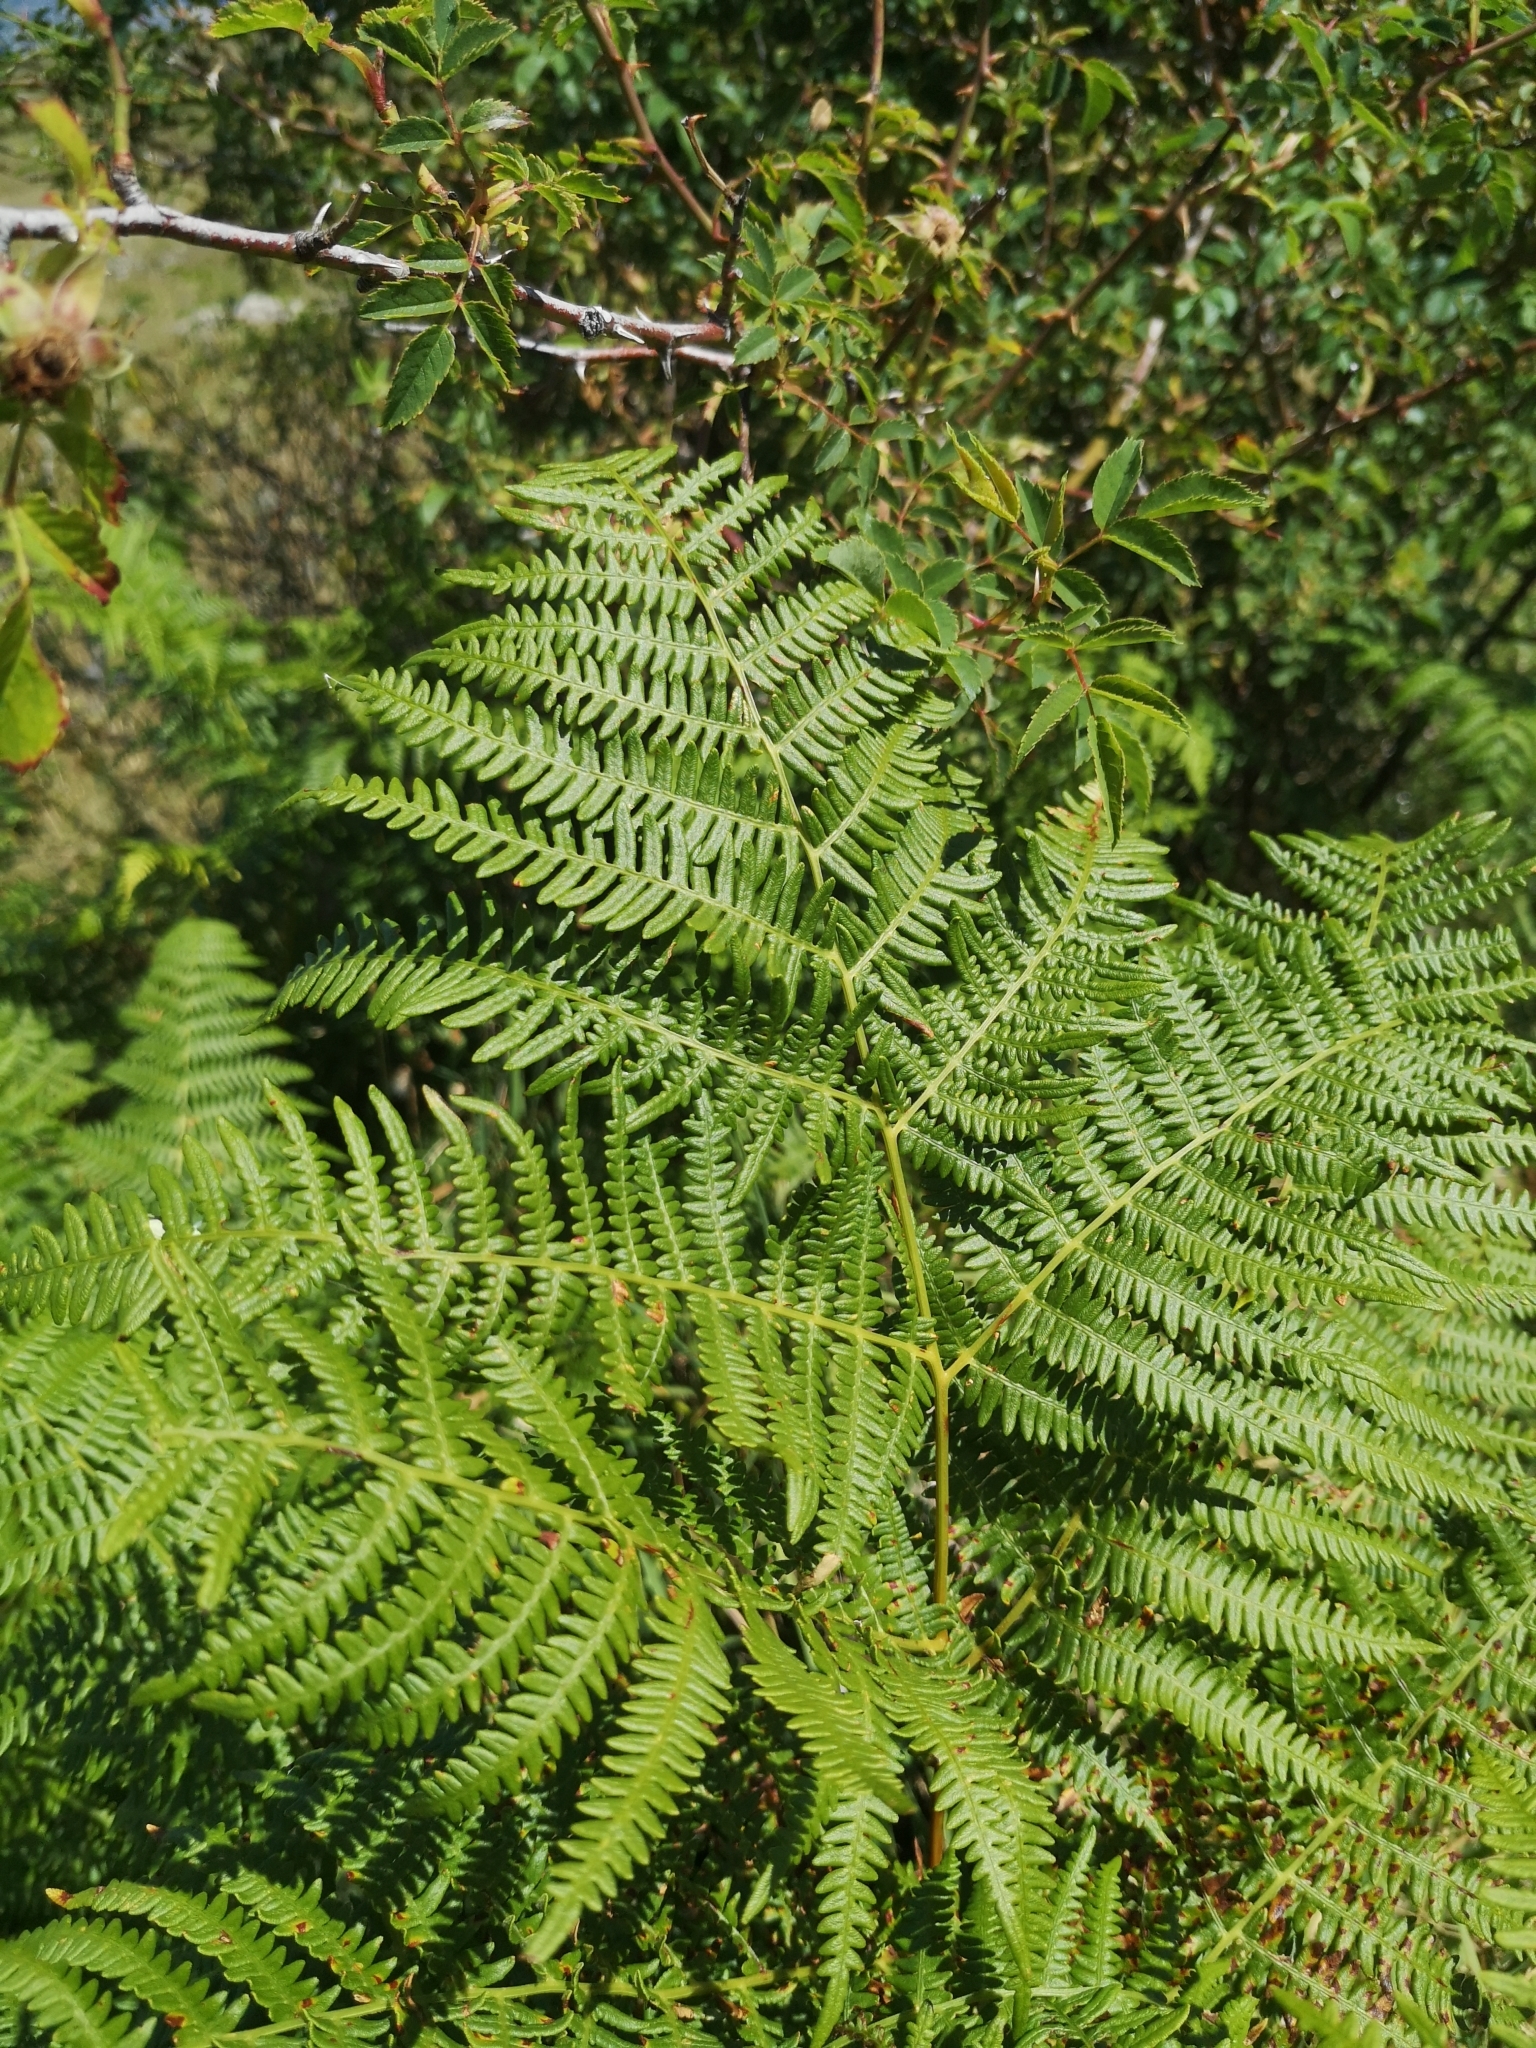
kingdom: Plantae
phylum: Tracheophyta
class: Polypodiopsida
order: Polypodiales
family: Dennstaedtiaceae
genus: Pteridium
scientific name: Pteridium aquilinum
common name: Bracken
